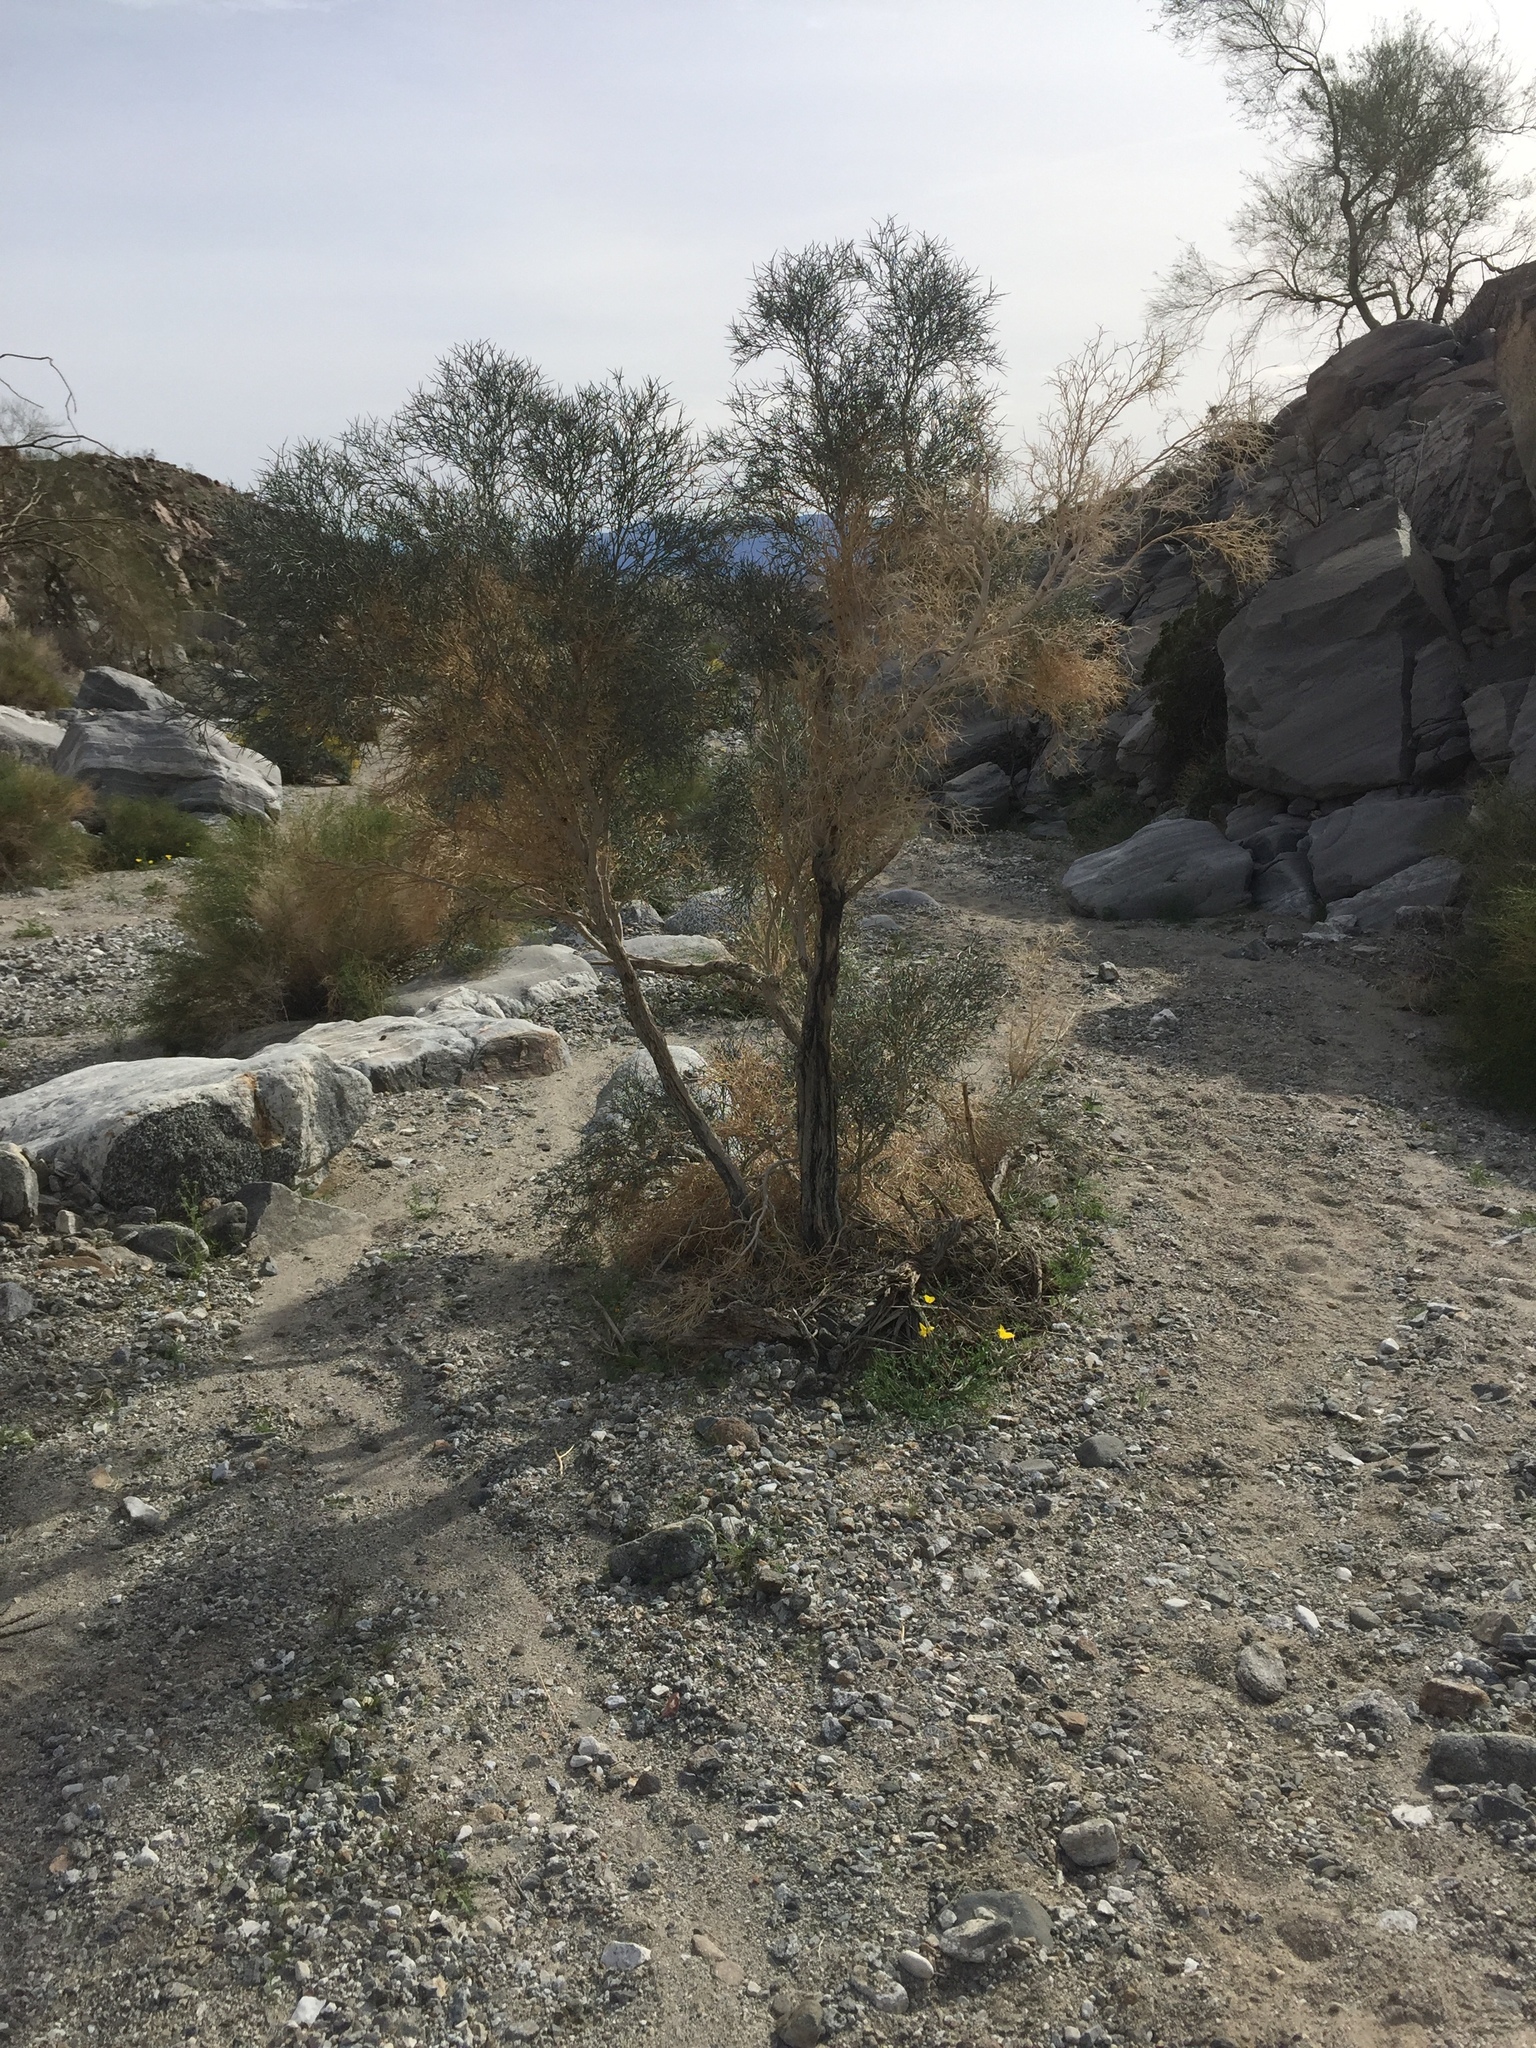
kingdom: Plantae
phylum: Tracheophyta
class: Magnoliopsida
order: Fabales
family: Fabaceae
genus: Psorothamnus
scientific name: Psorothamnus spinosus
